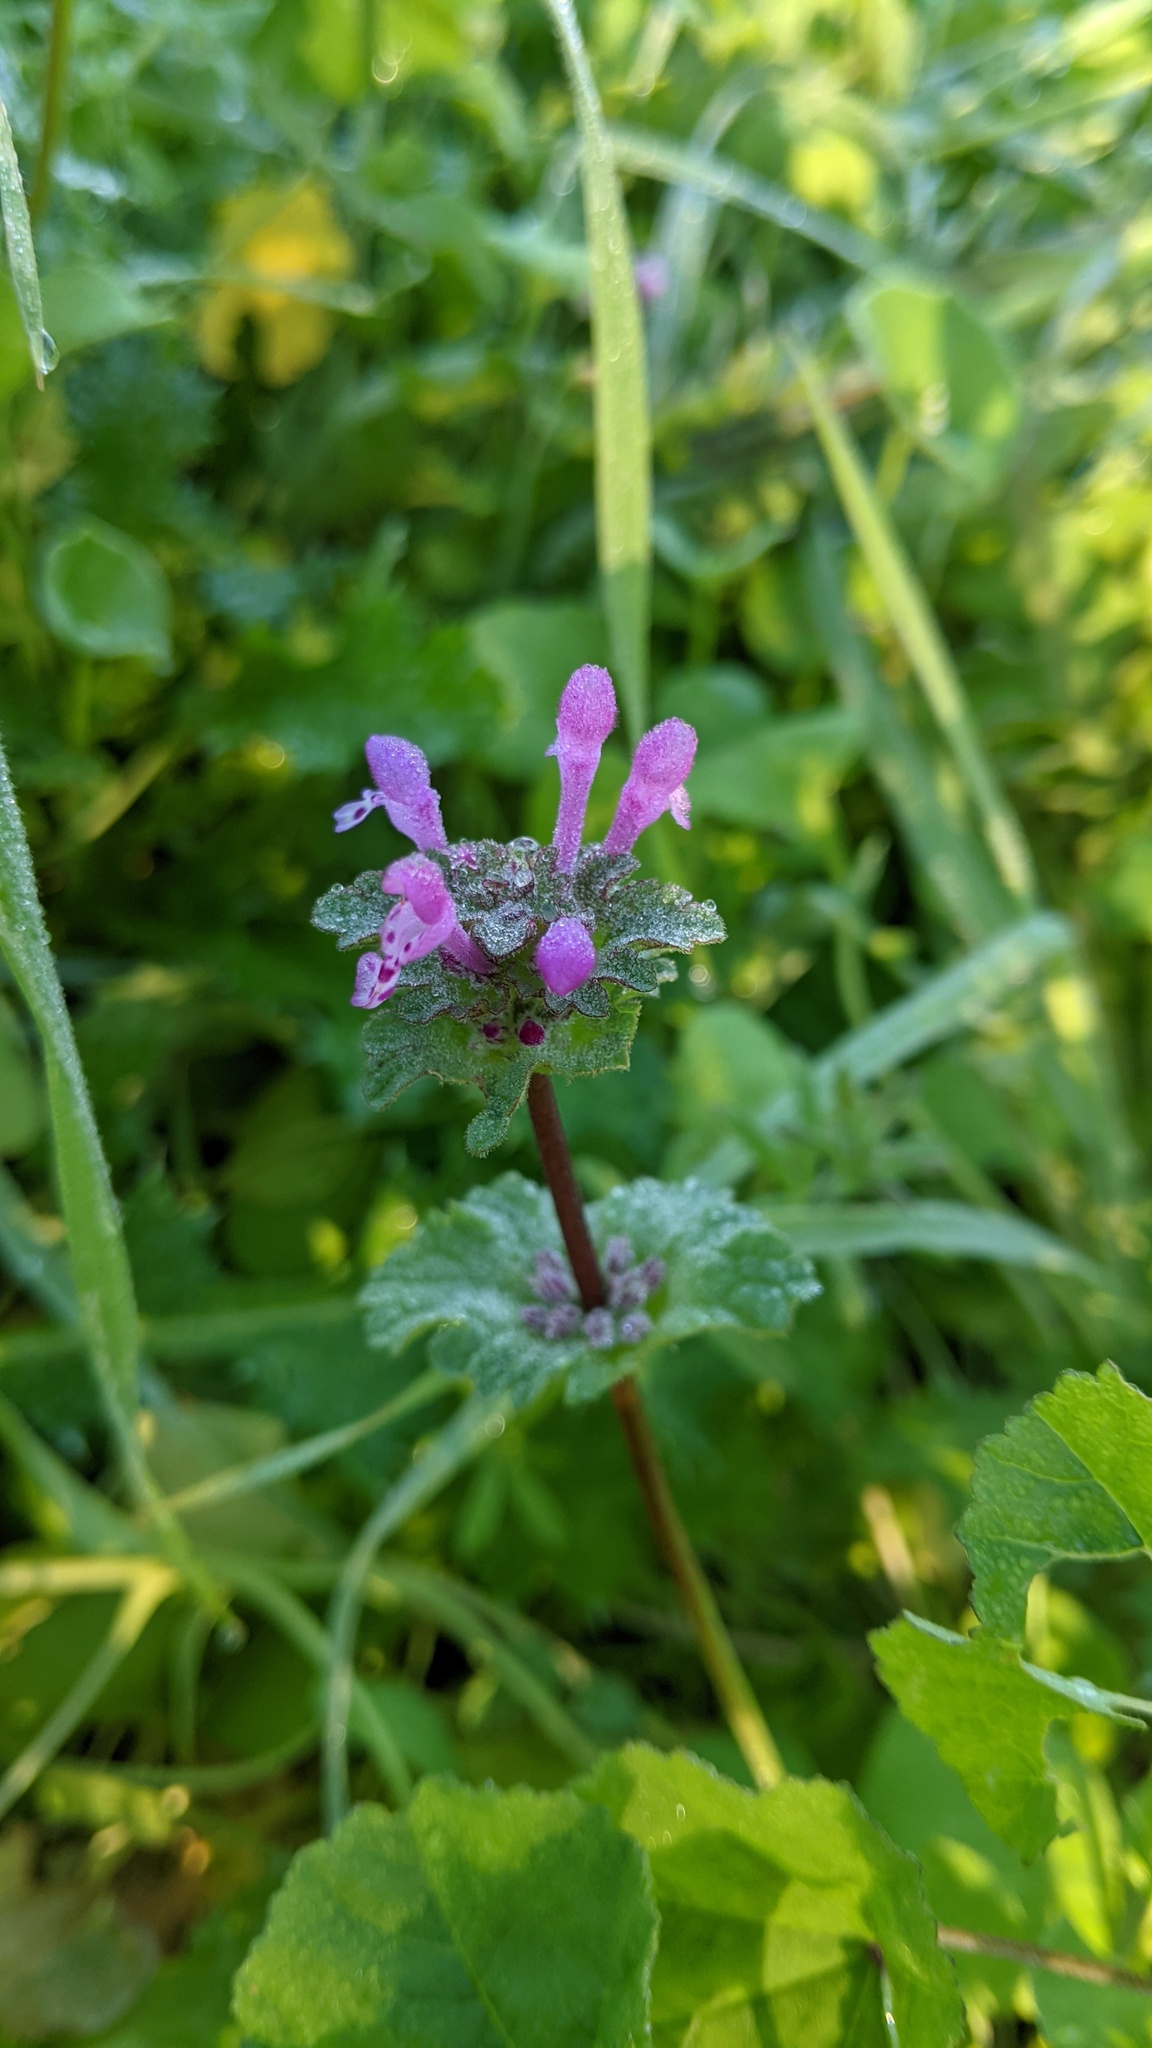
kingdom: Plantae
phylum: Tracheophyta
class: Magnoliopsida
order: Lamiales
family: Lamiaceae
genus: Lamium
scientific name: Lamium amplexicaule
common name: Henbit dead-nettle
